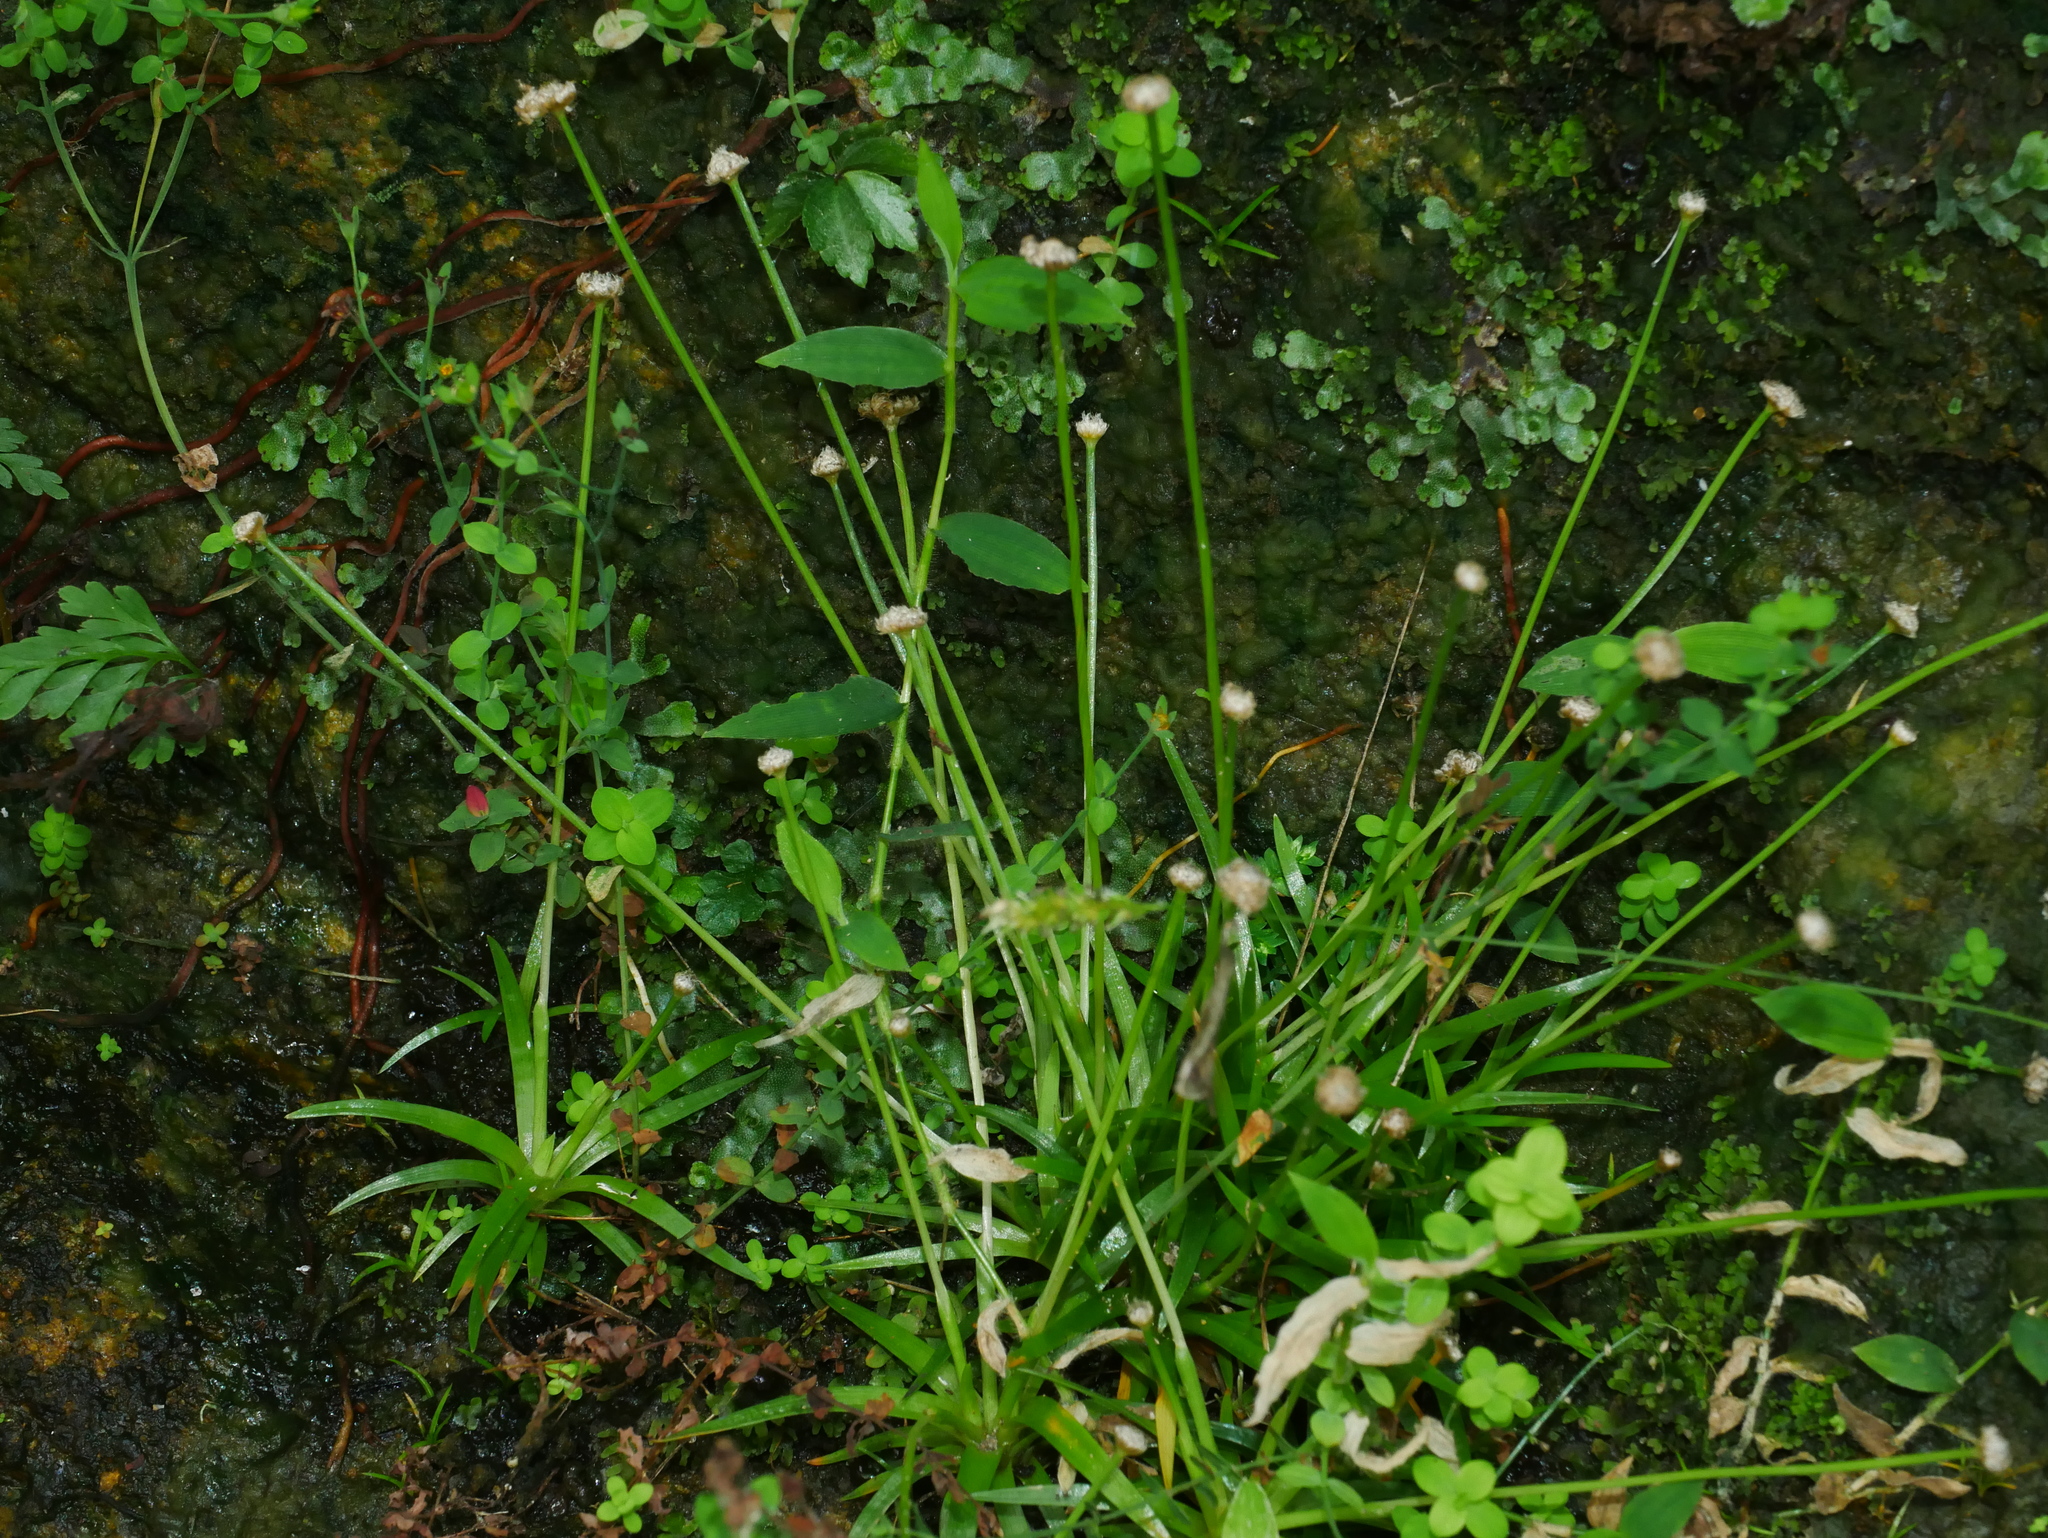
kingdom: Plantae
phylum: Tracheophyta
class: Liliopsida
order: Poales
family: Eriocaulaceae
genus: Eriocaulon
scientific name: Eriocaulon truncatum
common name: Short pipe-wort
